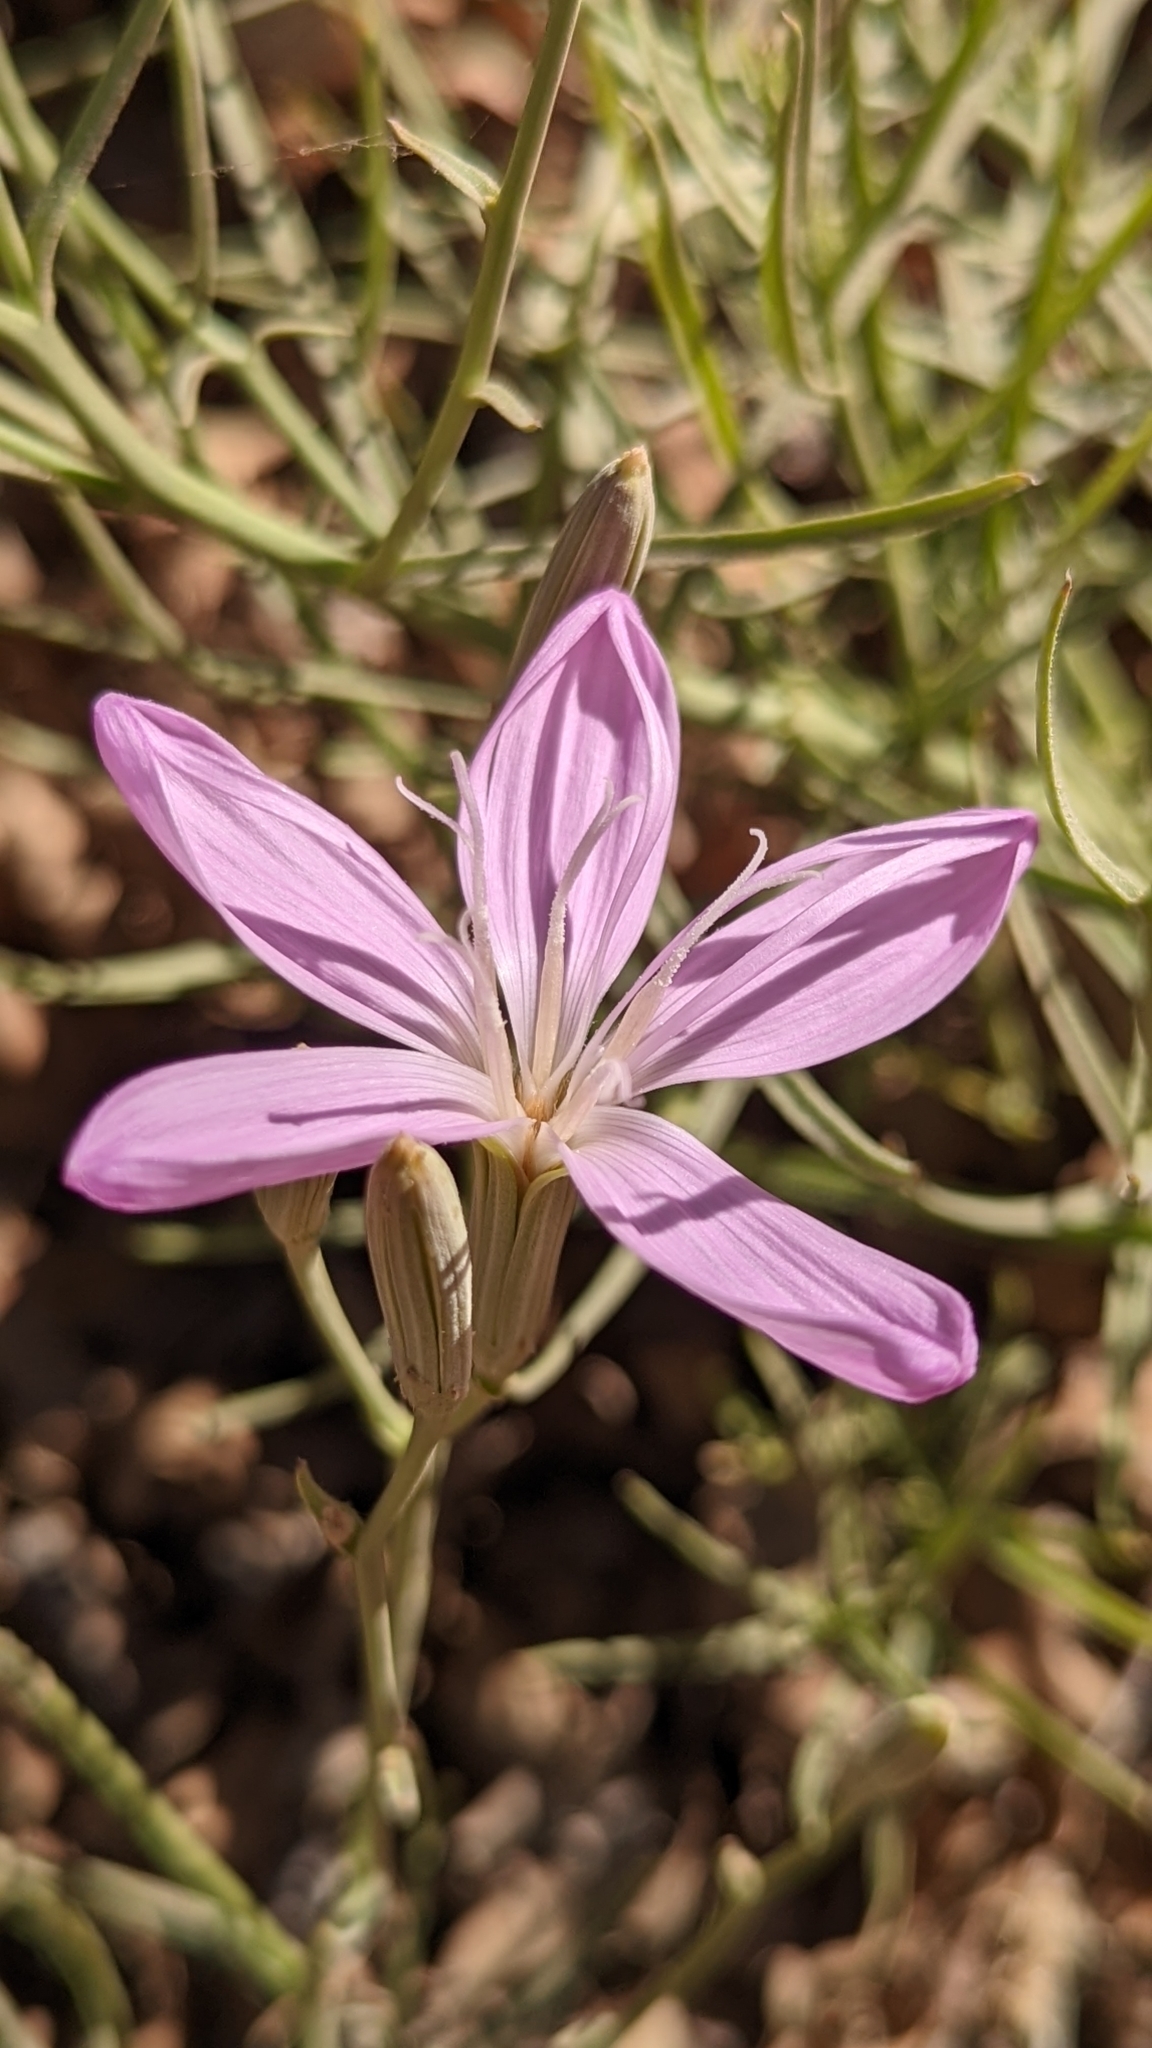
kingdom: Plantae
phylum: Tracheophyta
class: Magnoliopsida
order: Asterales
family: Asteraceae
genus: Lygodesmia
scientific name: Lygodesmia grandiflora
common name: Showy rush-pink
